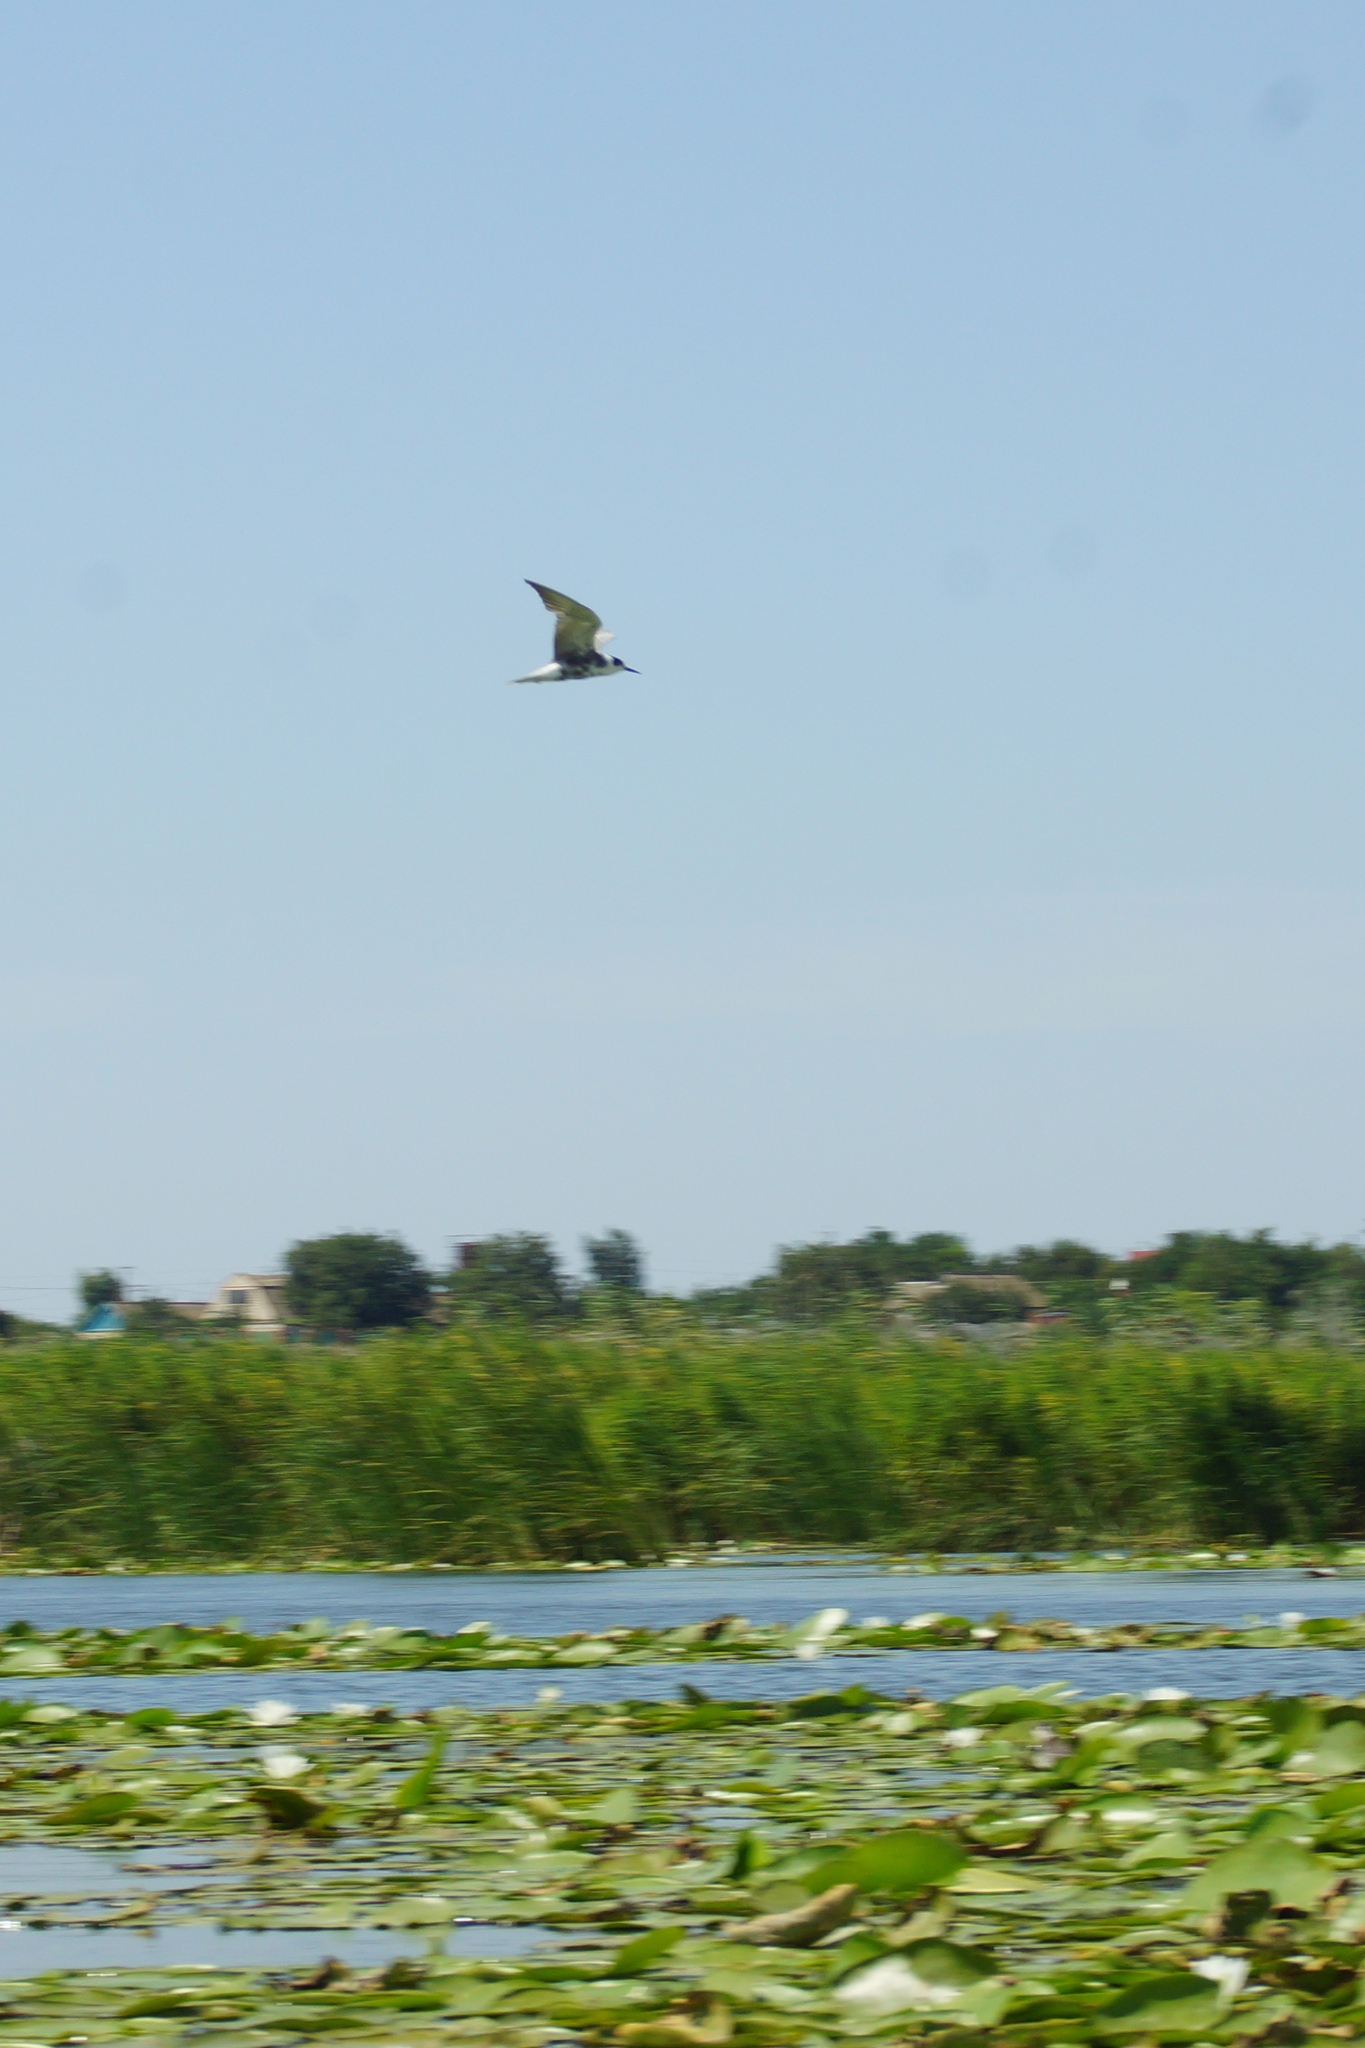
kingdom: Animalia
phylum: Chordata
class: Aves
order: Charadriiformes
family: Laridae
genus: Chlidonias
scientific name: Chlidonias hybrida
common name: Whiskered tern
